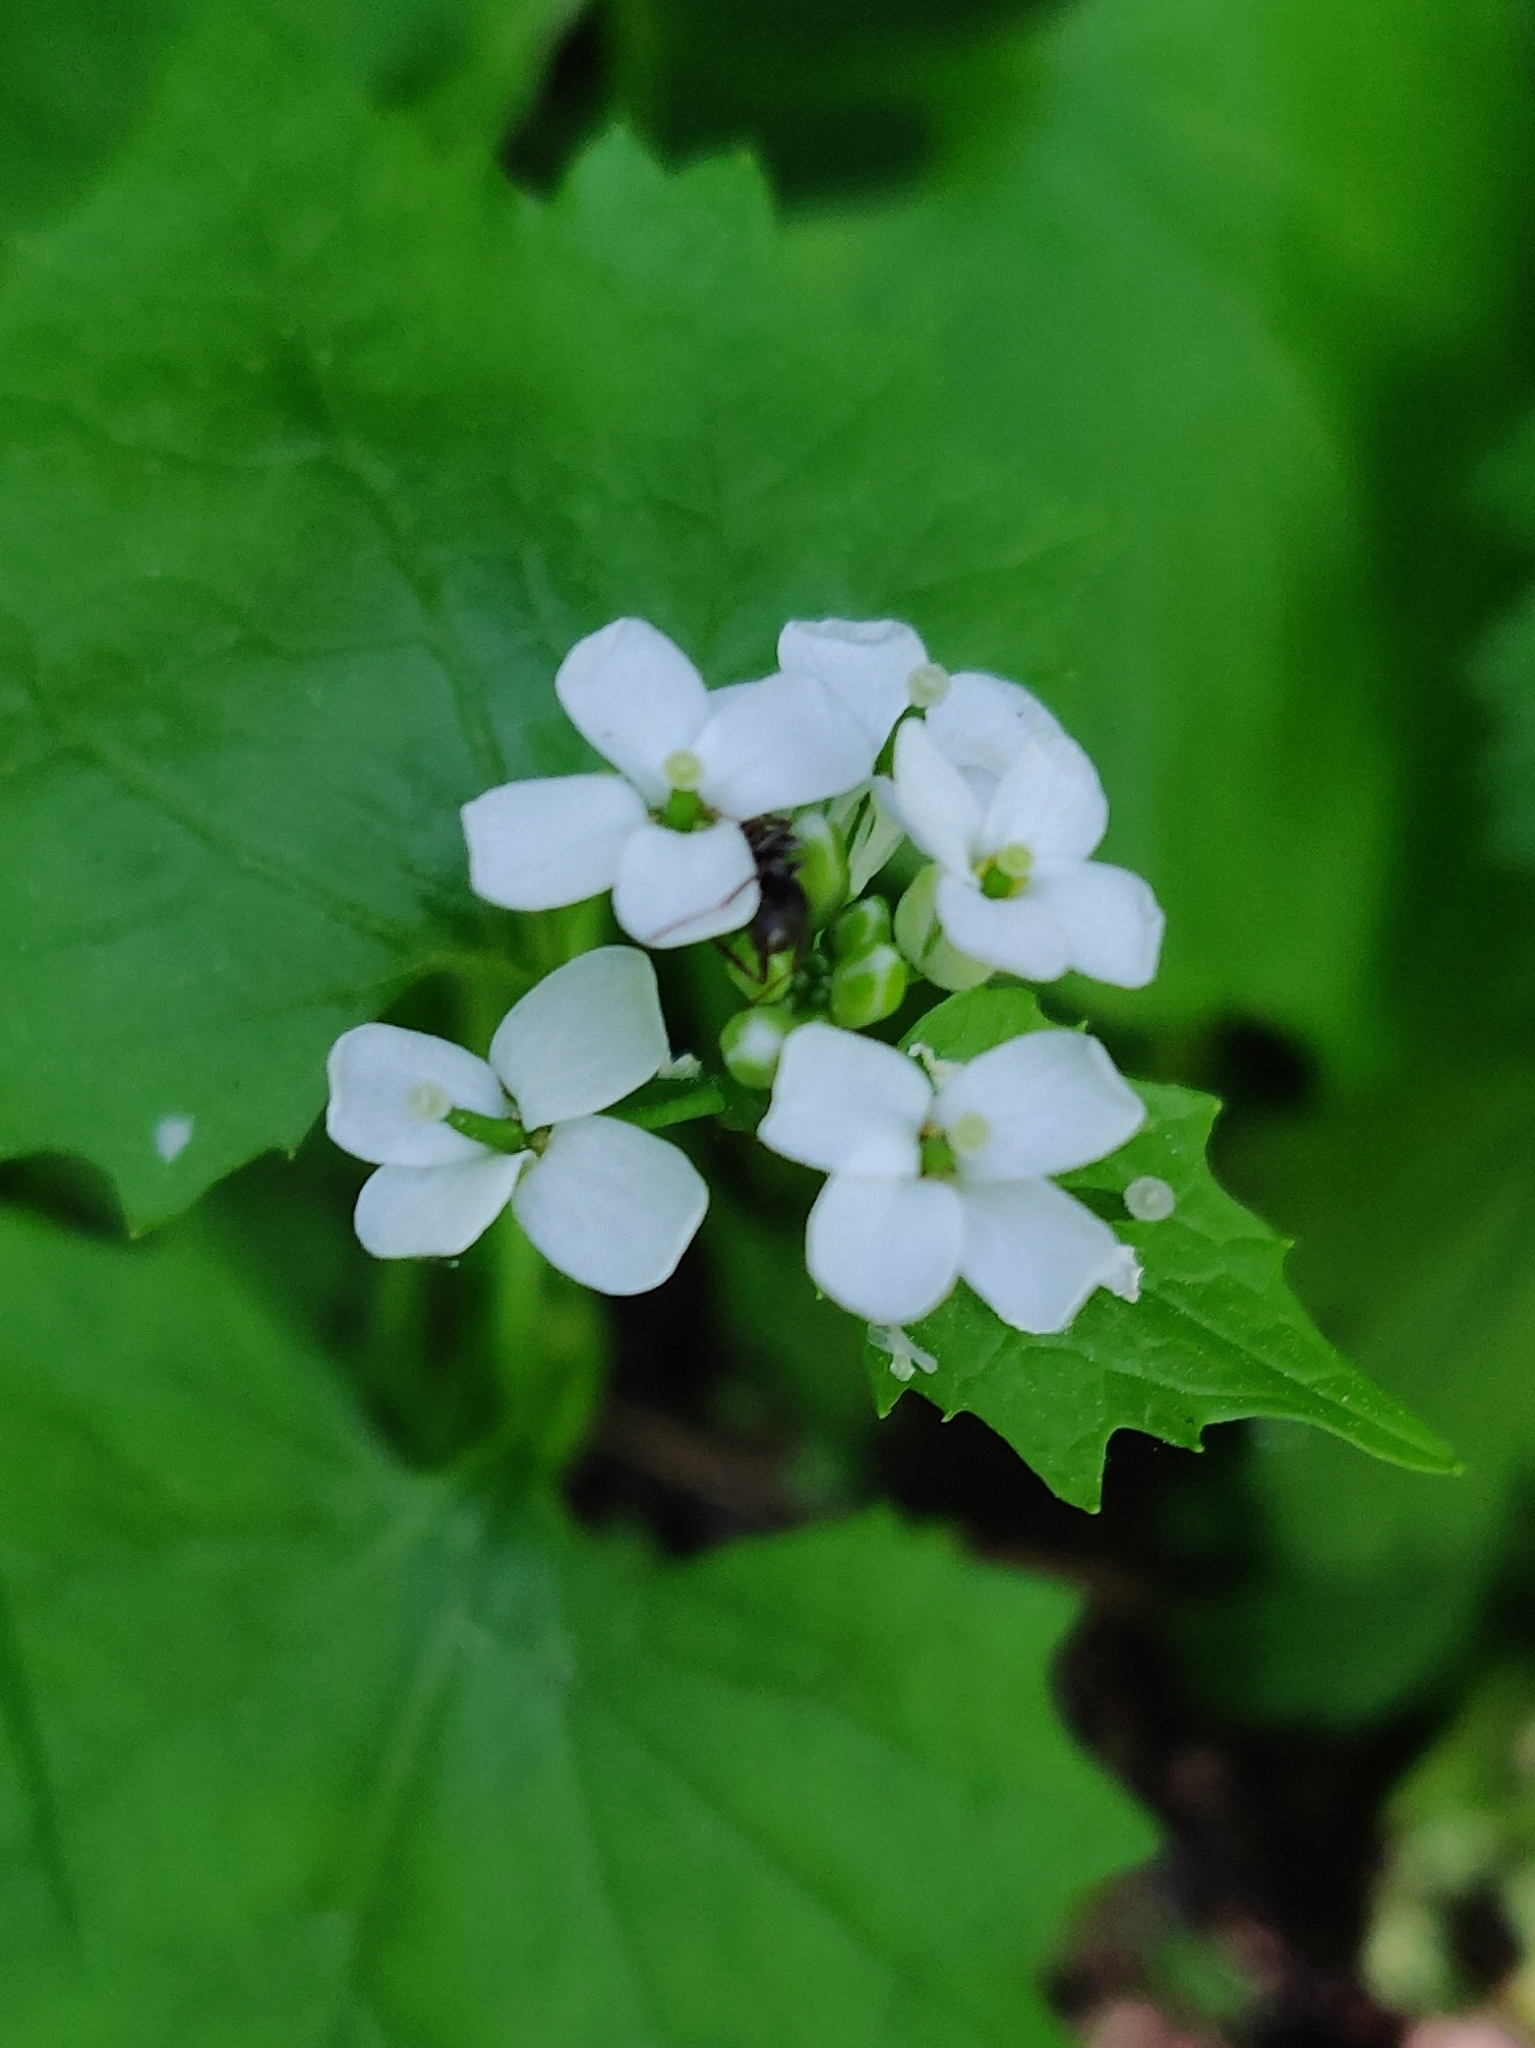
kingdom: Plantae
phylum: Tracheophyta
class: Magnoliopsida
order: Brassicales
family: Brassicaceae
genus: Alliaria
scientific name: Alliaria petiolata
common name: Garlic mustard
